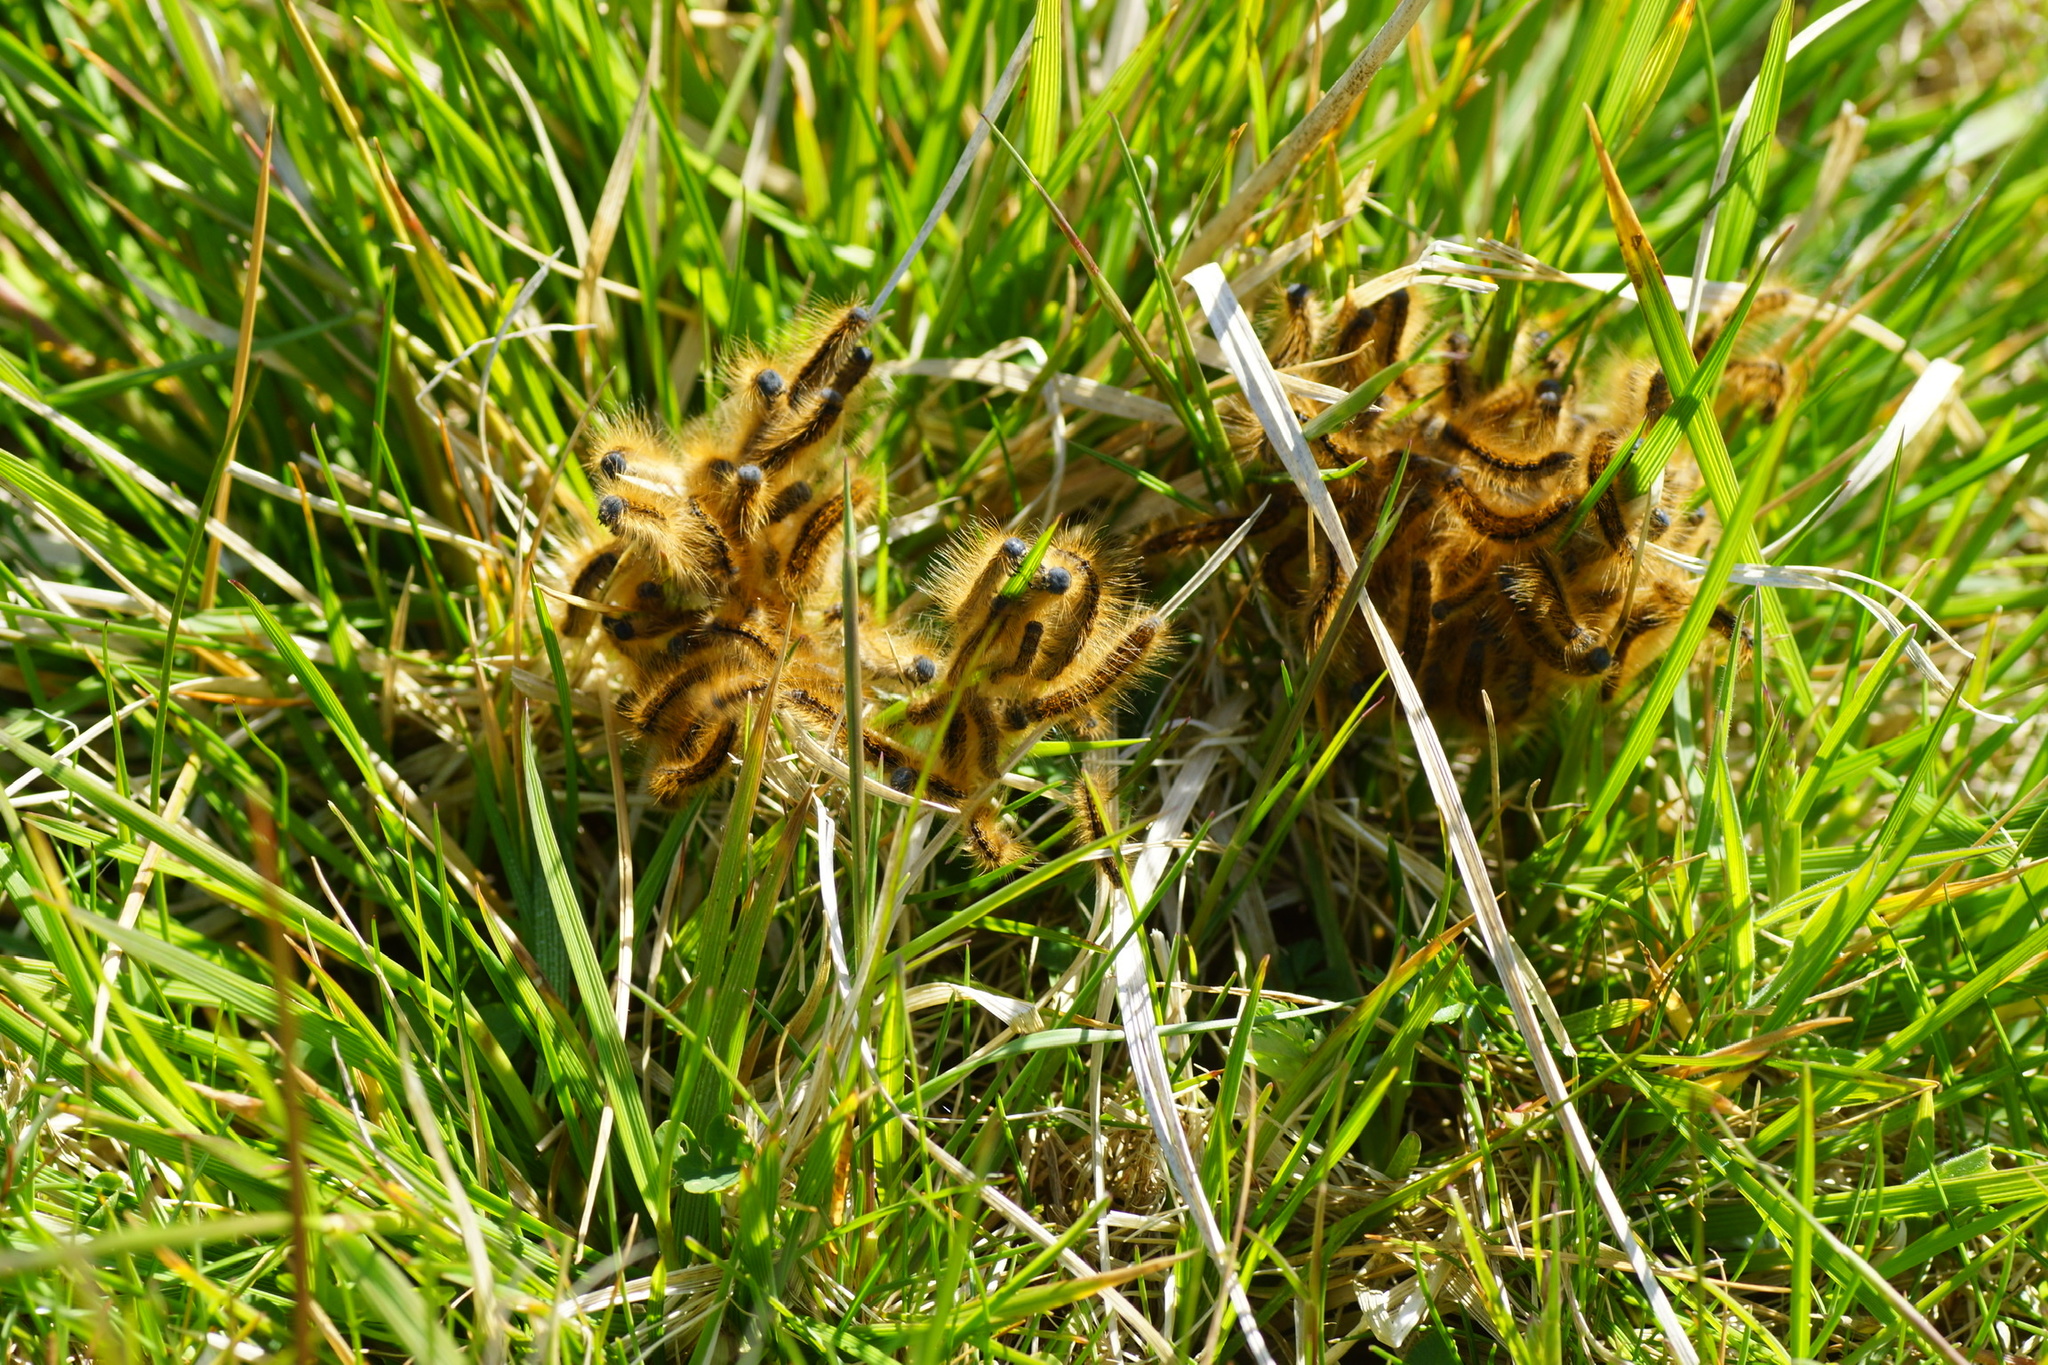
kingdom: Animalia
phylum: Arthropoda
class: Insecta
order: Lepidoptera
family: Lasiocampidae
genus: Malacosoma
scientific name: Malacosoma castrense
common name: Ground lackey
